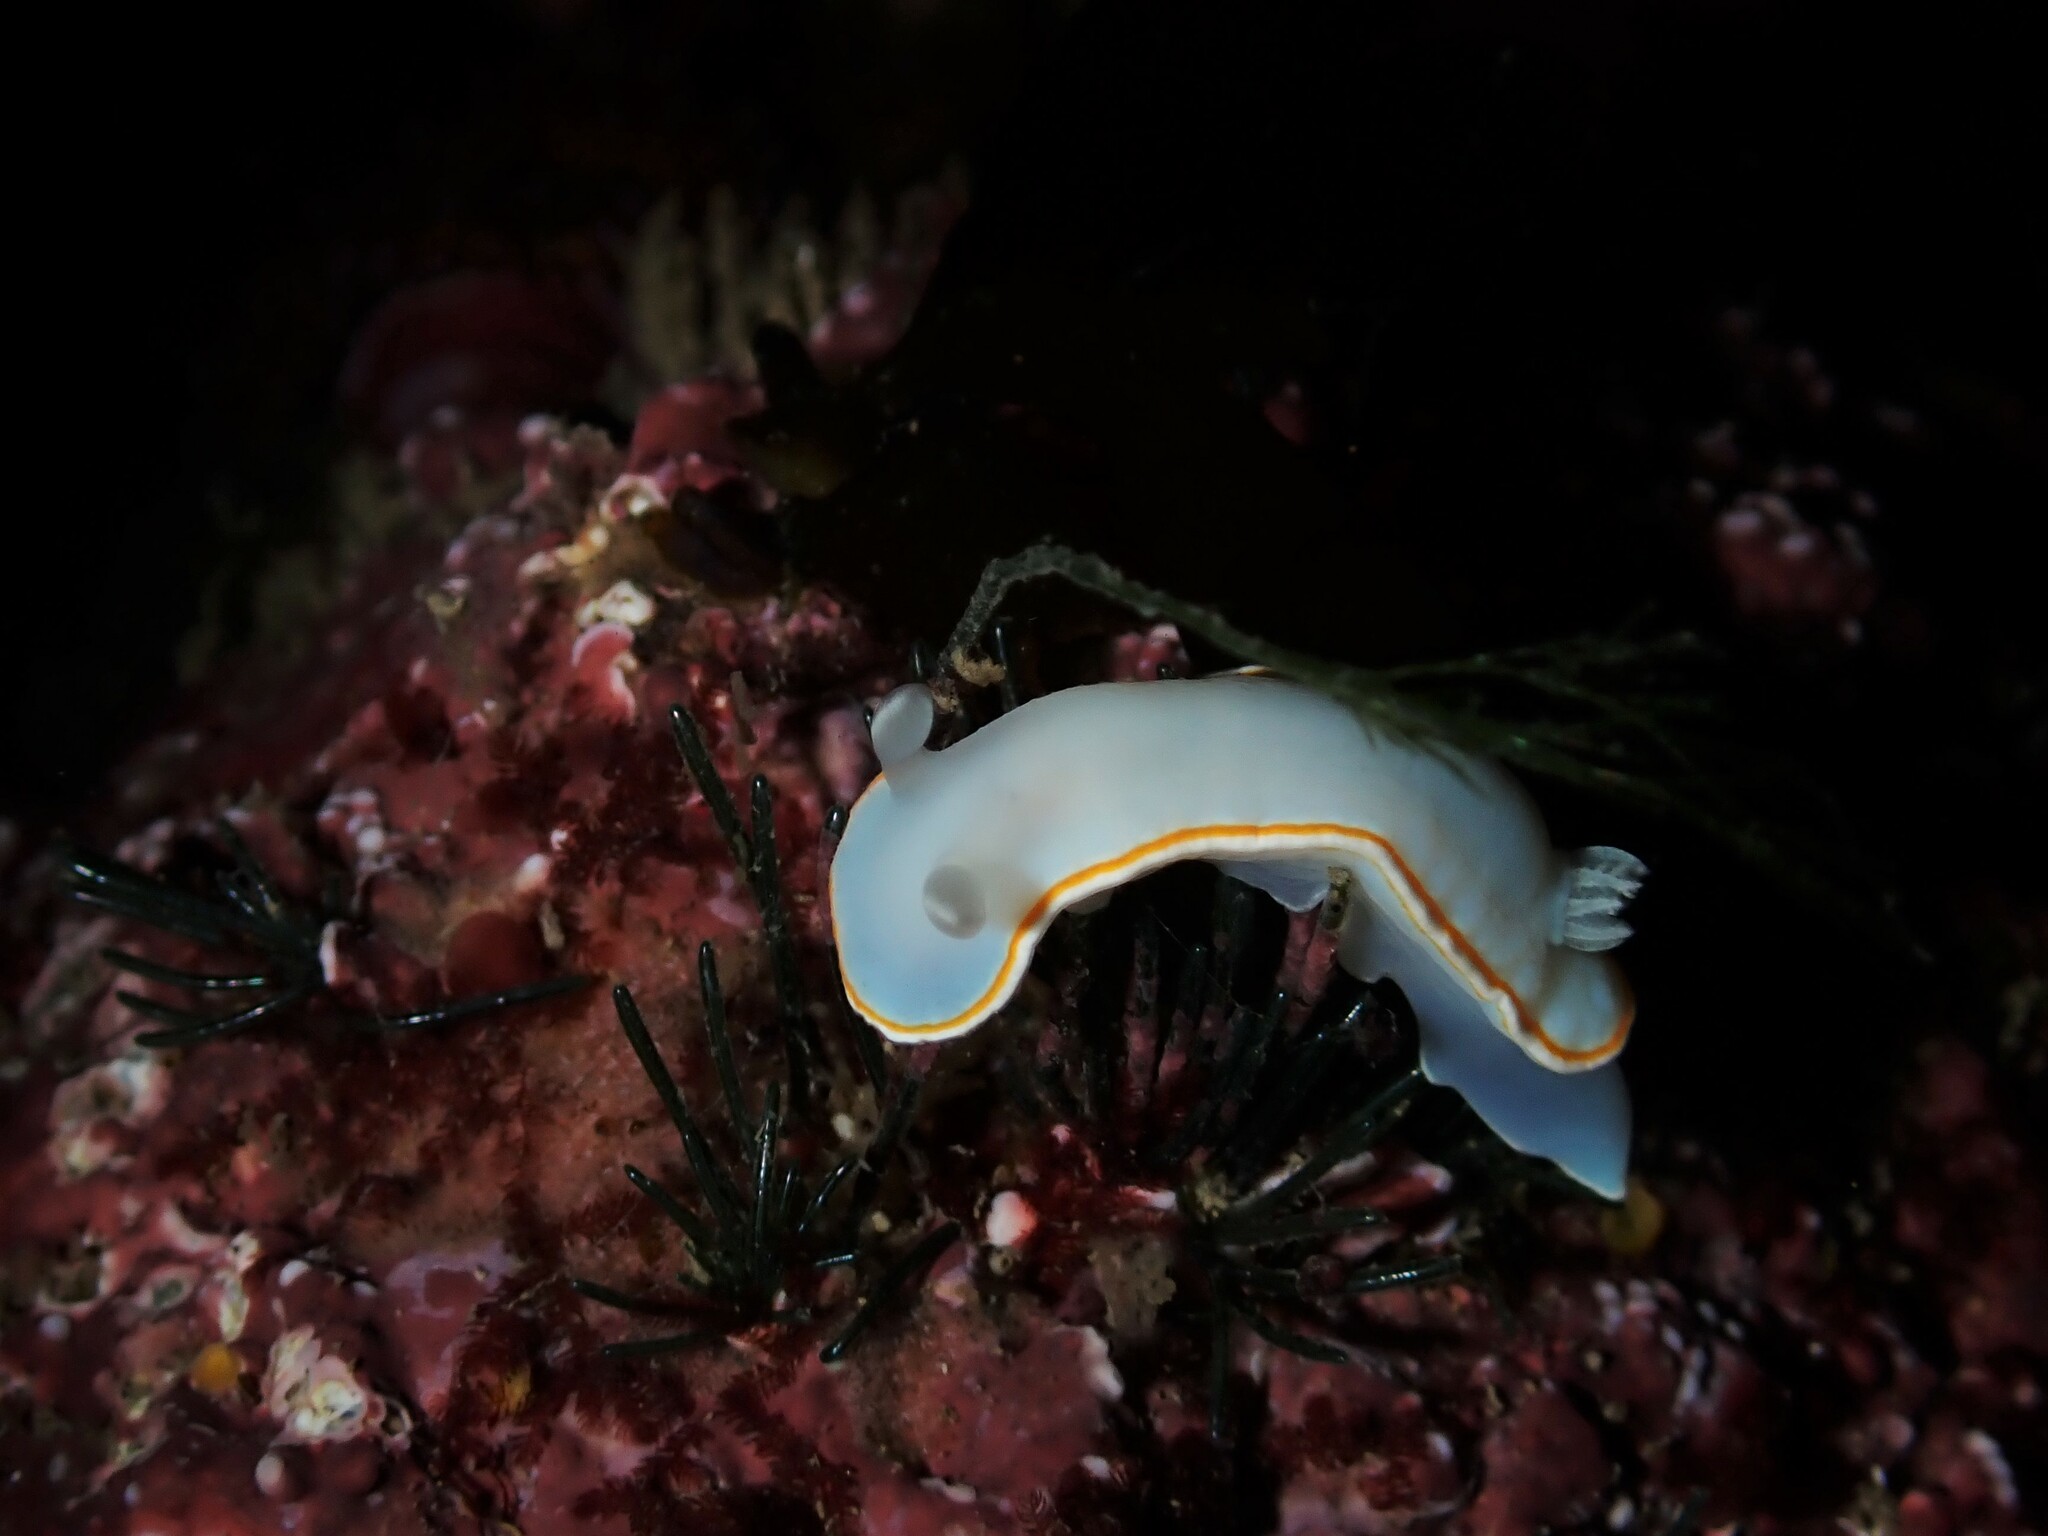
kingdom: Animalia
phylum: Mollusca
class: Gastropoda
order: Nudibranchia
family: Chromodorididae
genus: Goniobranchus
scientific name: Goniobranchus aureomarginatus
